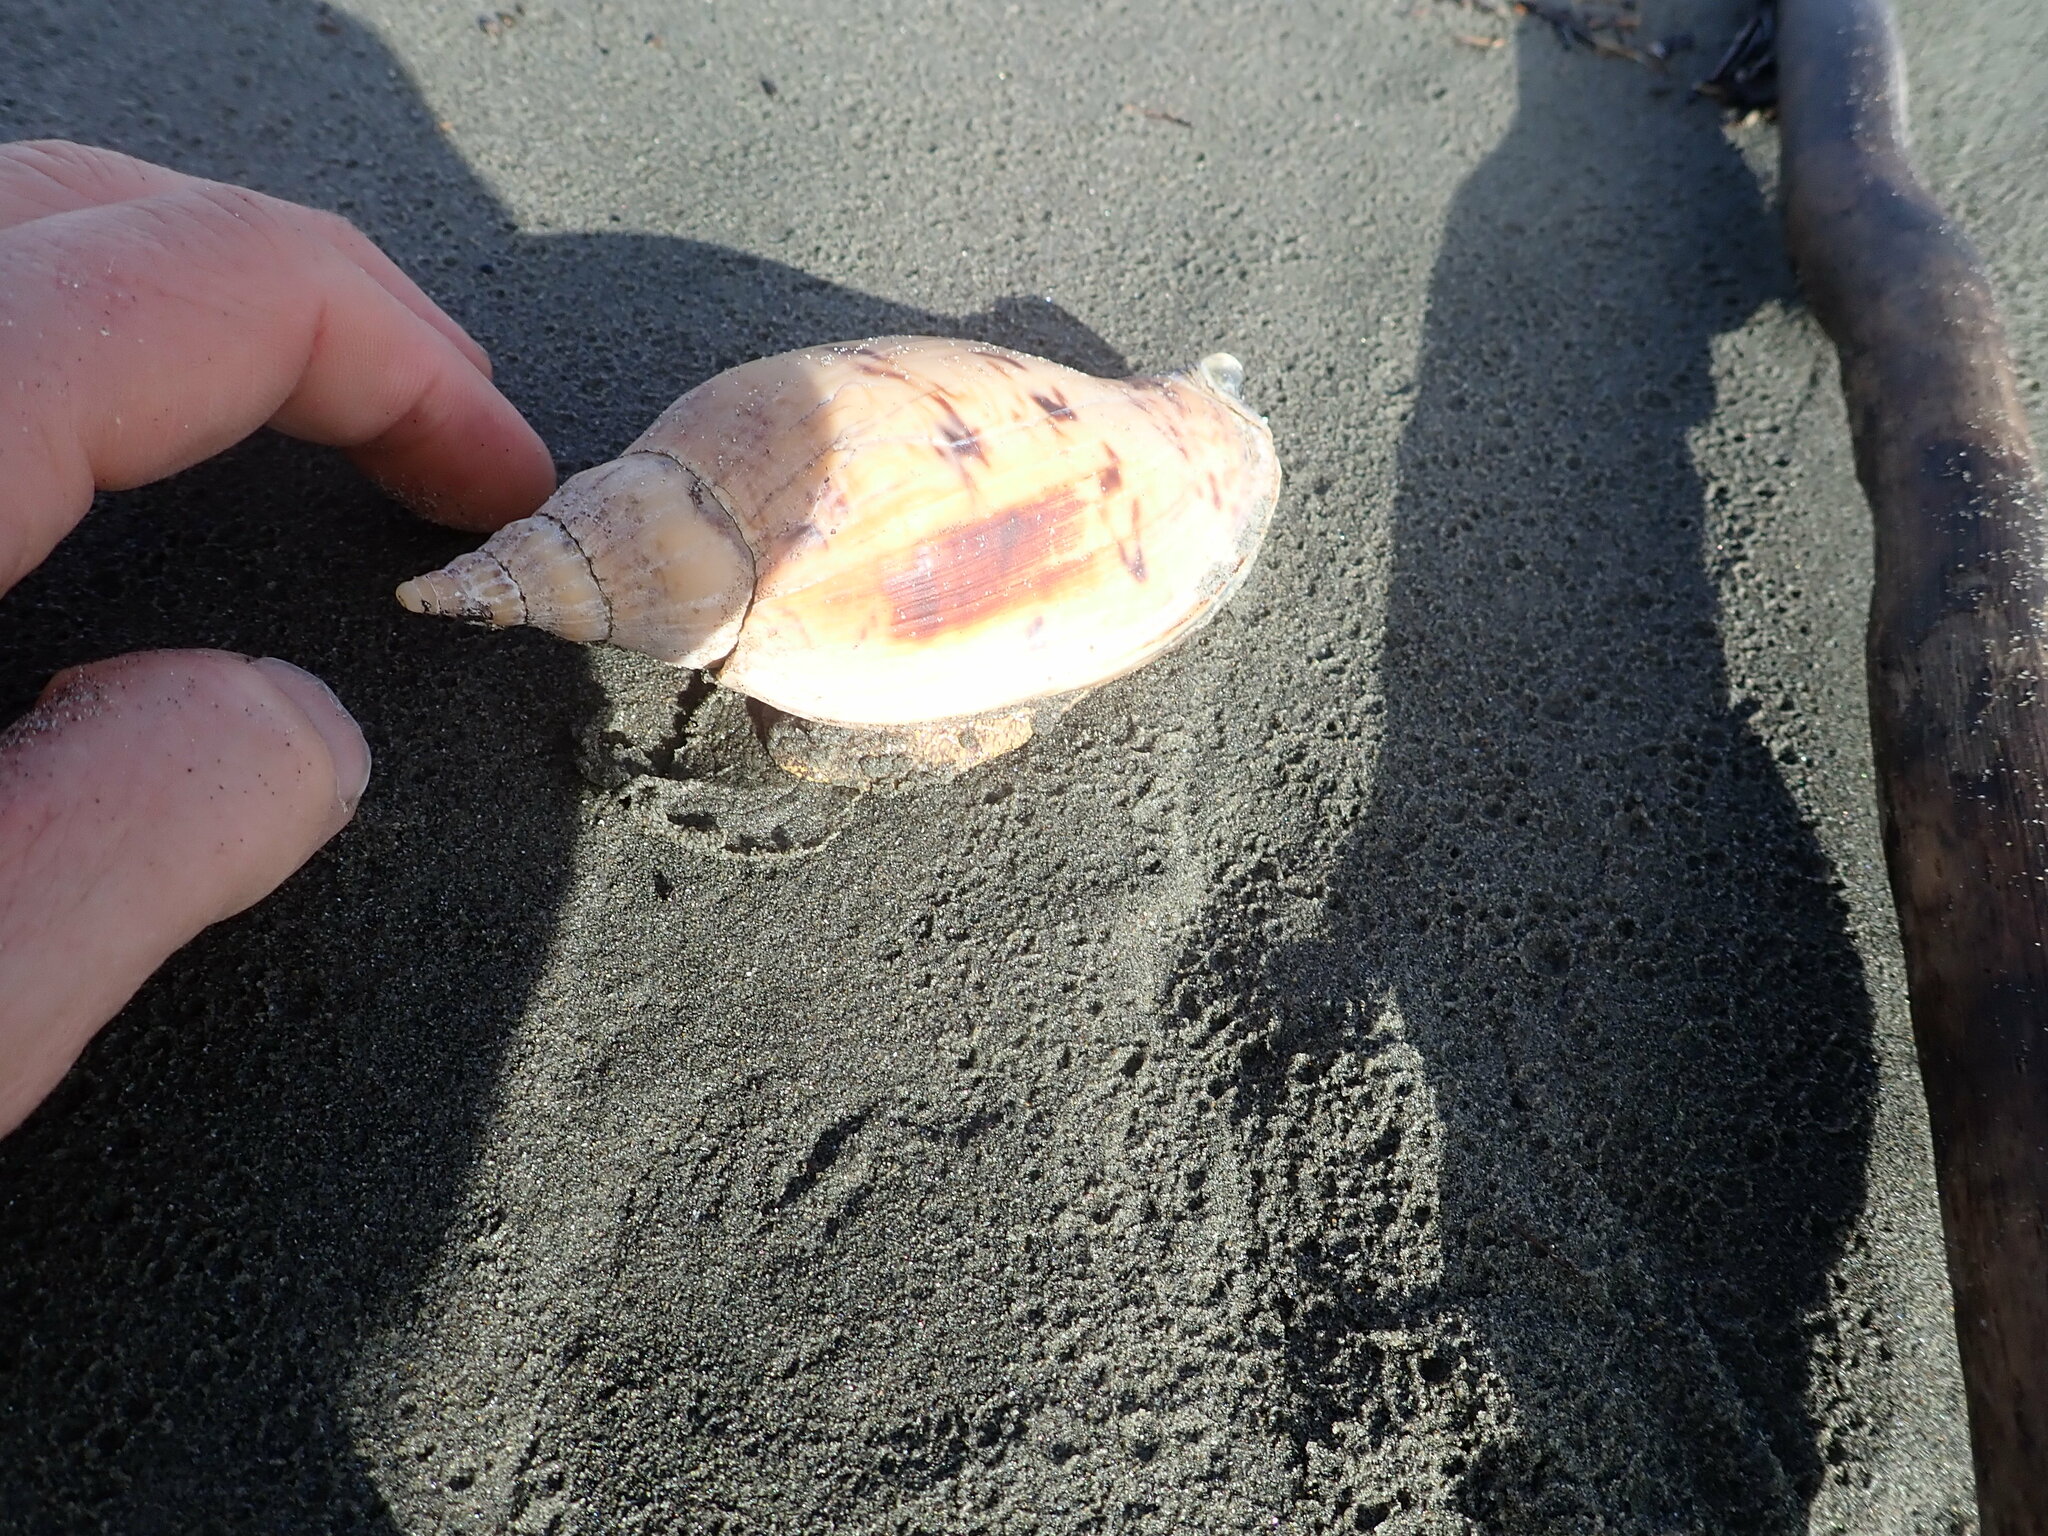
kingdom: Animalia
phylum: Mollusca
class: Gastropoda
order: Neogastropoda
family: Volutidae
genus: Alcithoe
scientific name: Alcithoe arabica
